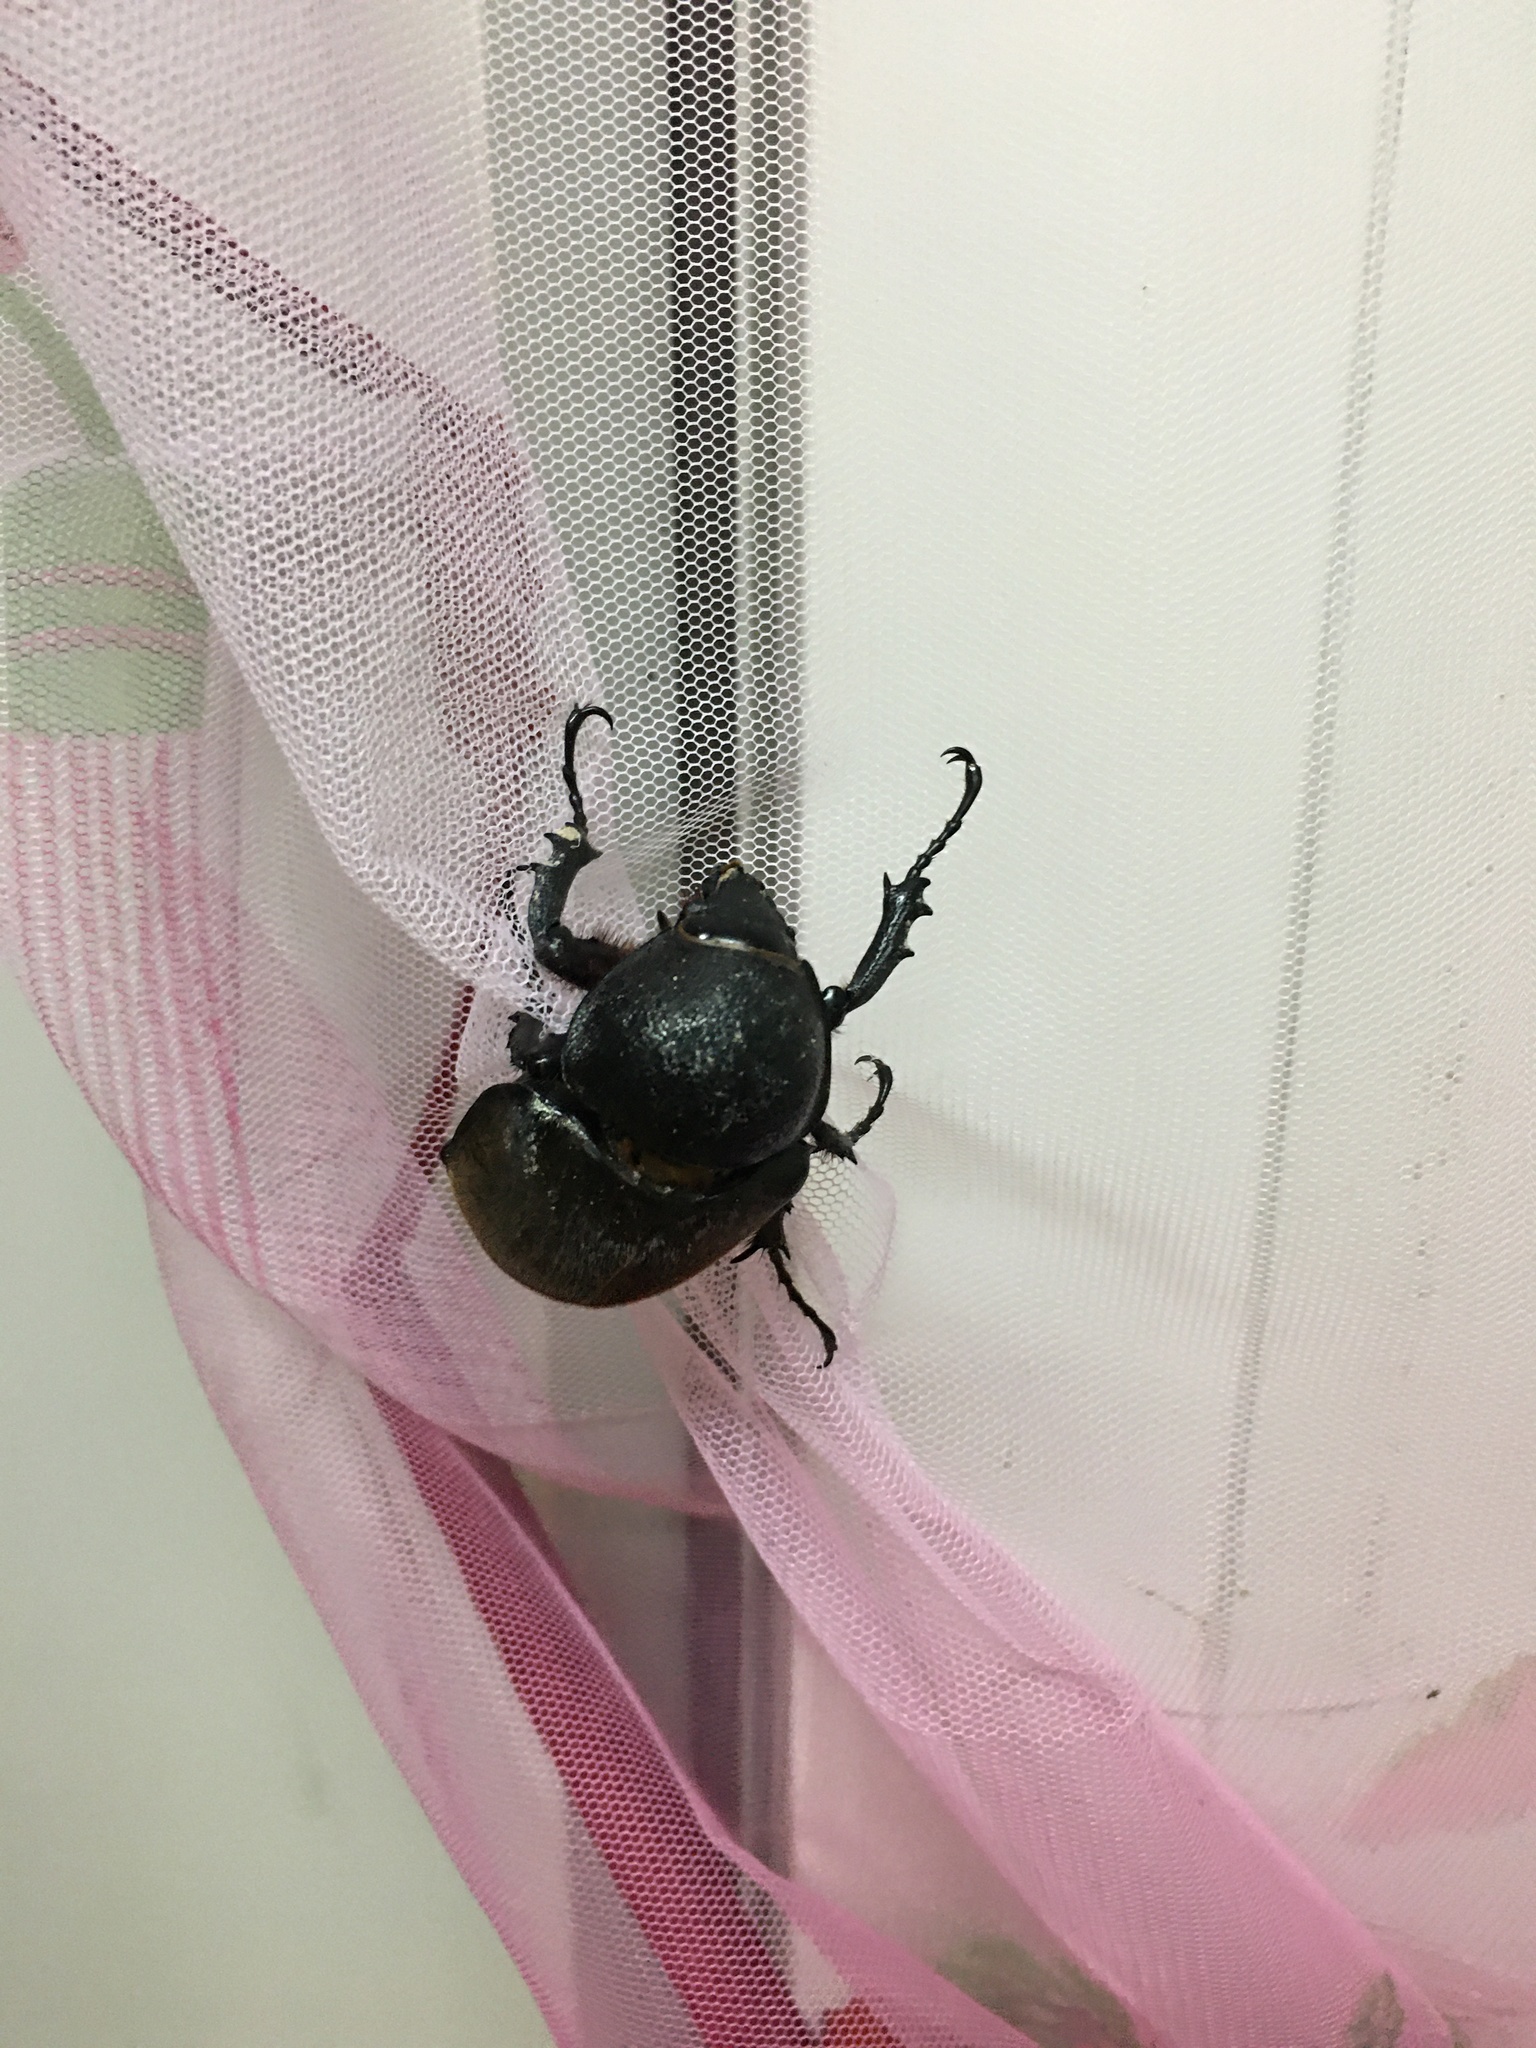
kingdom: Animalia
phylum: Arthropoda
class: Insecta
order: Coleoptera
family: Scarabaeidae
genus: Chalcosoma
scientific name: Chalcosoma chiron
